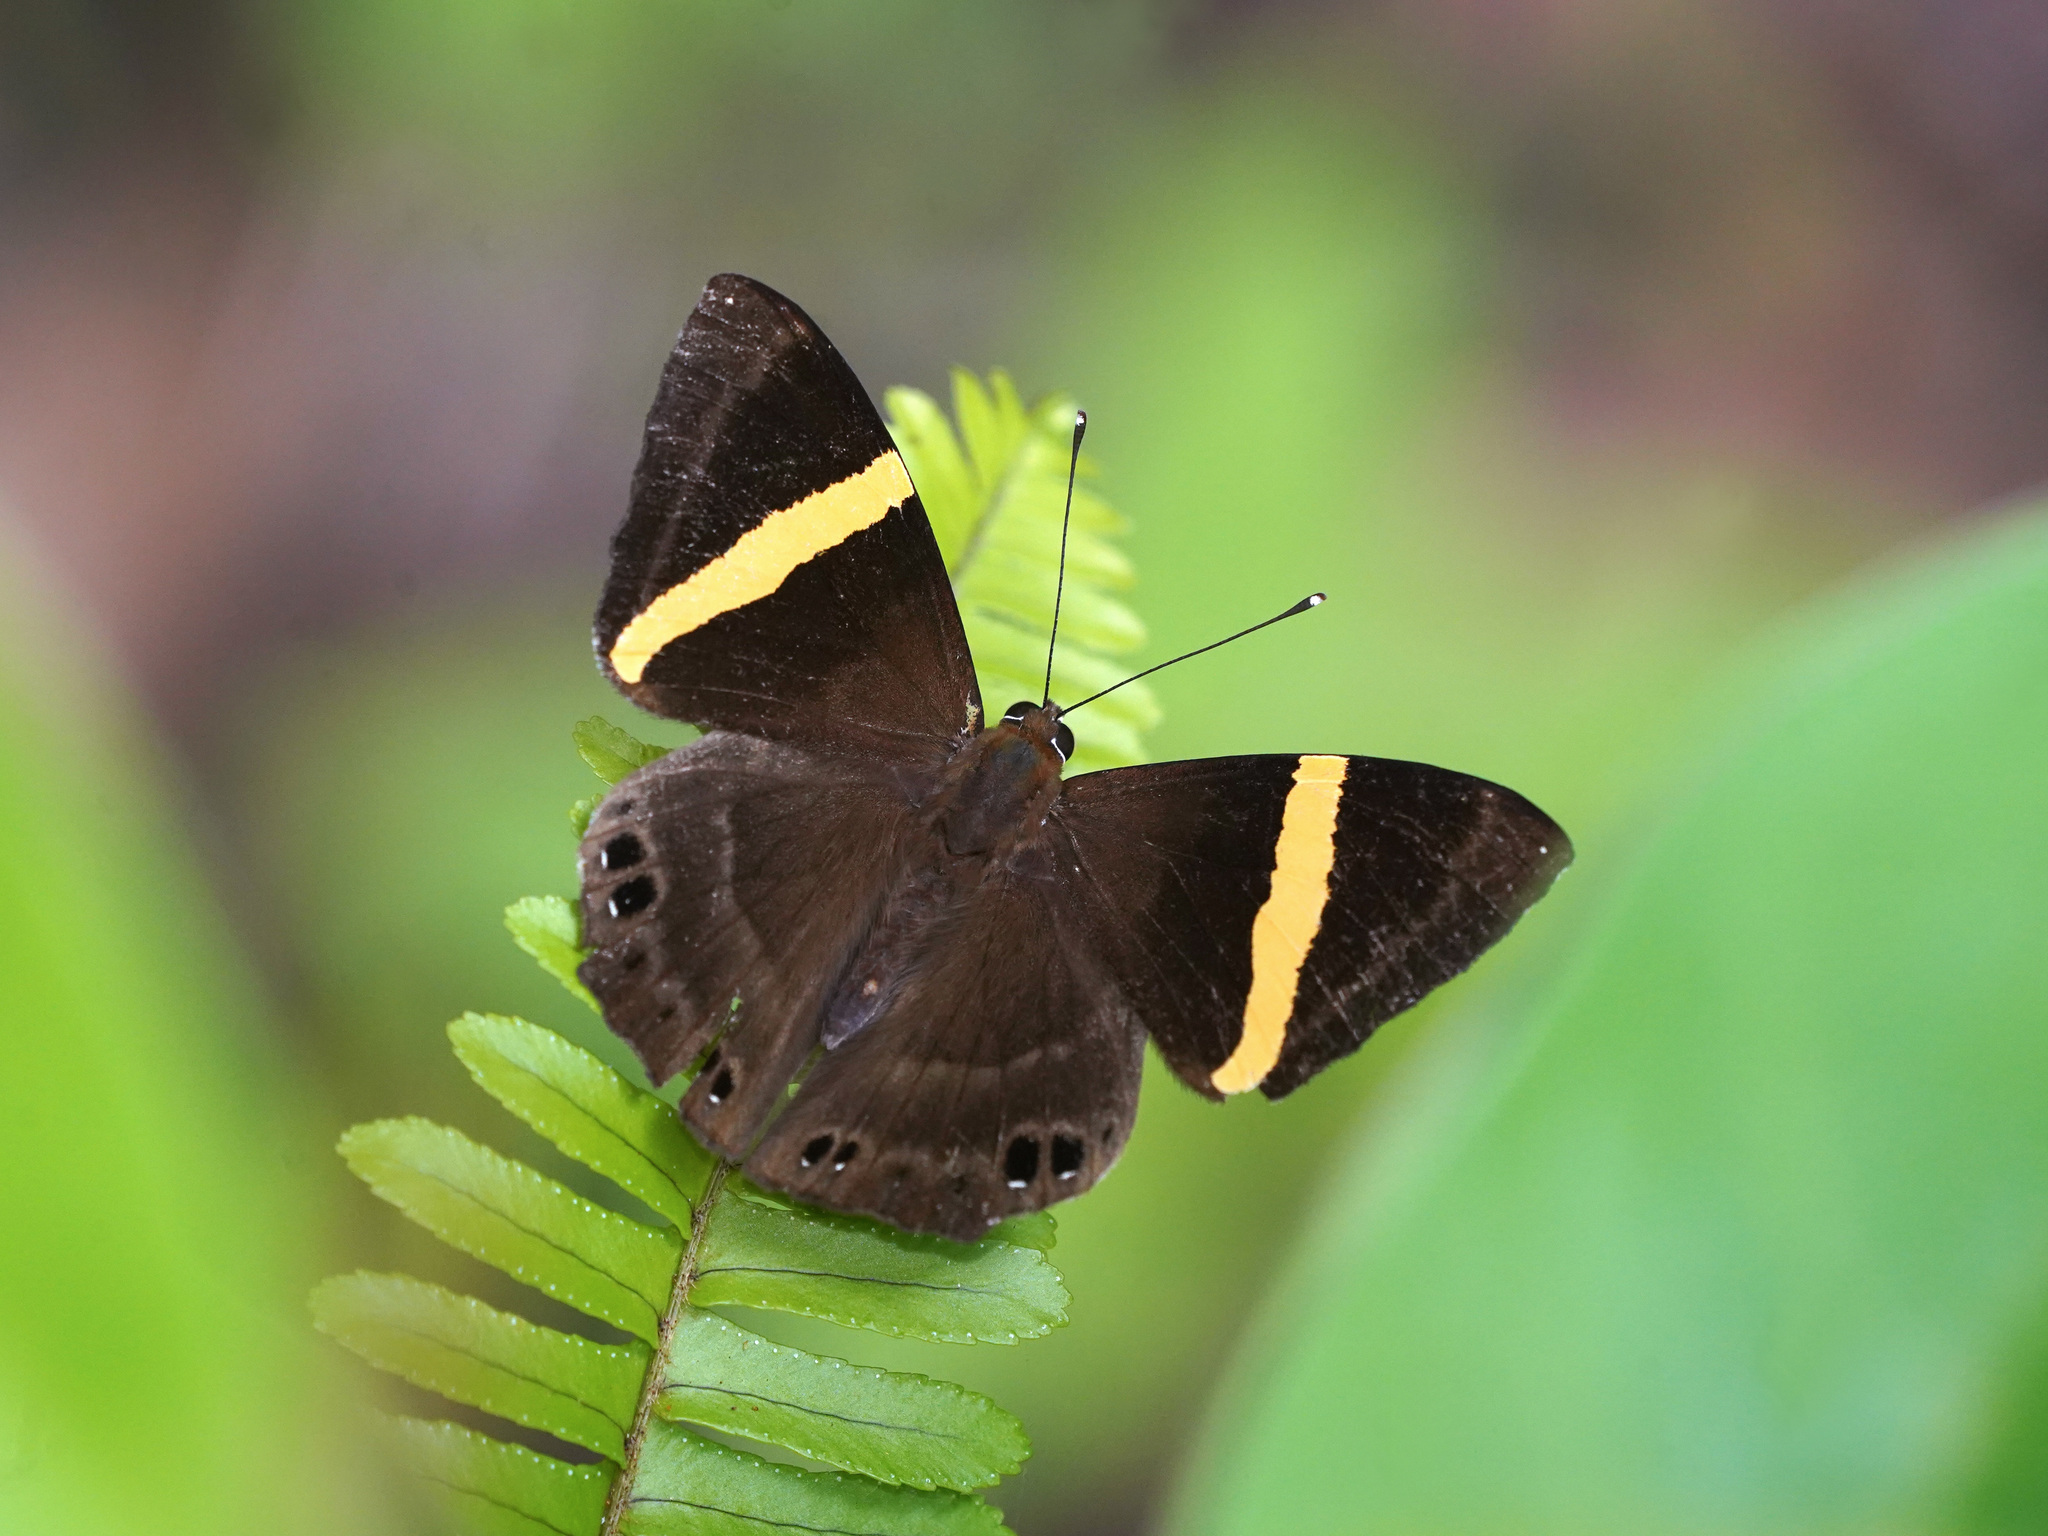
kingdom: Animalia
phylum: Arthropoda
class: Insecta
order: Lepidoptera
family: Lycaenidae
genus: Abisara
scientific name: Abisara fylla
